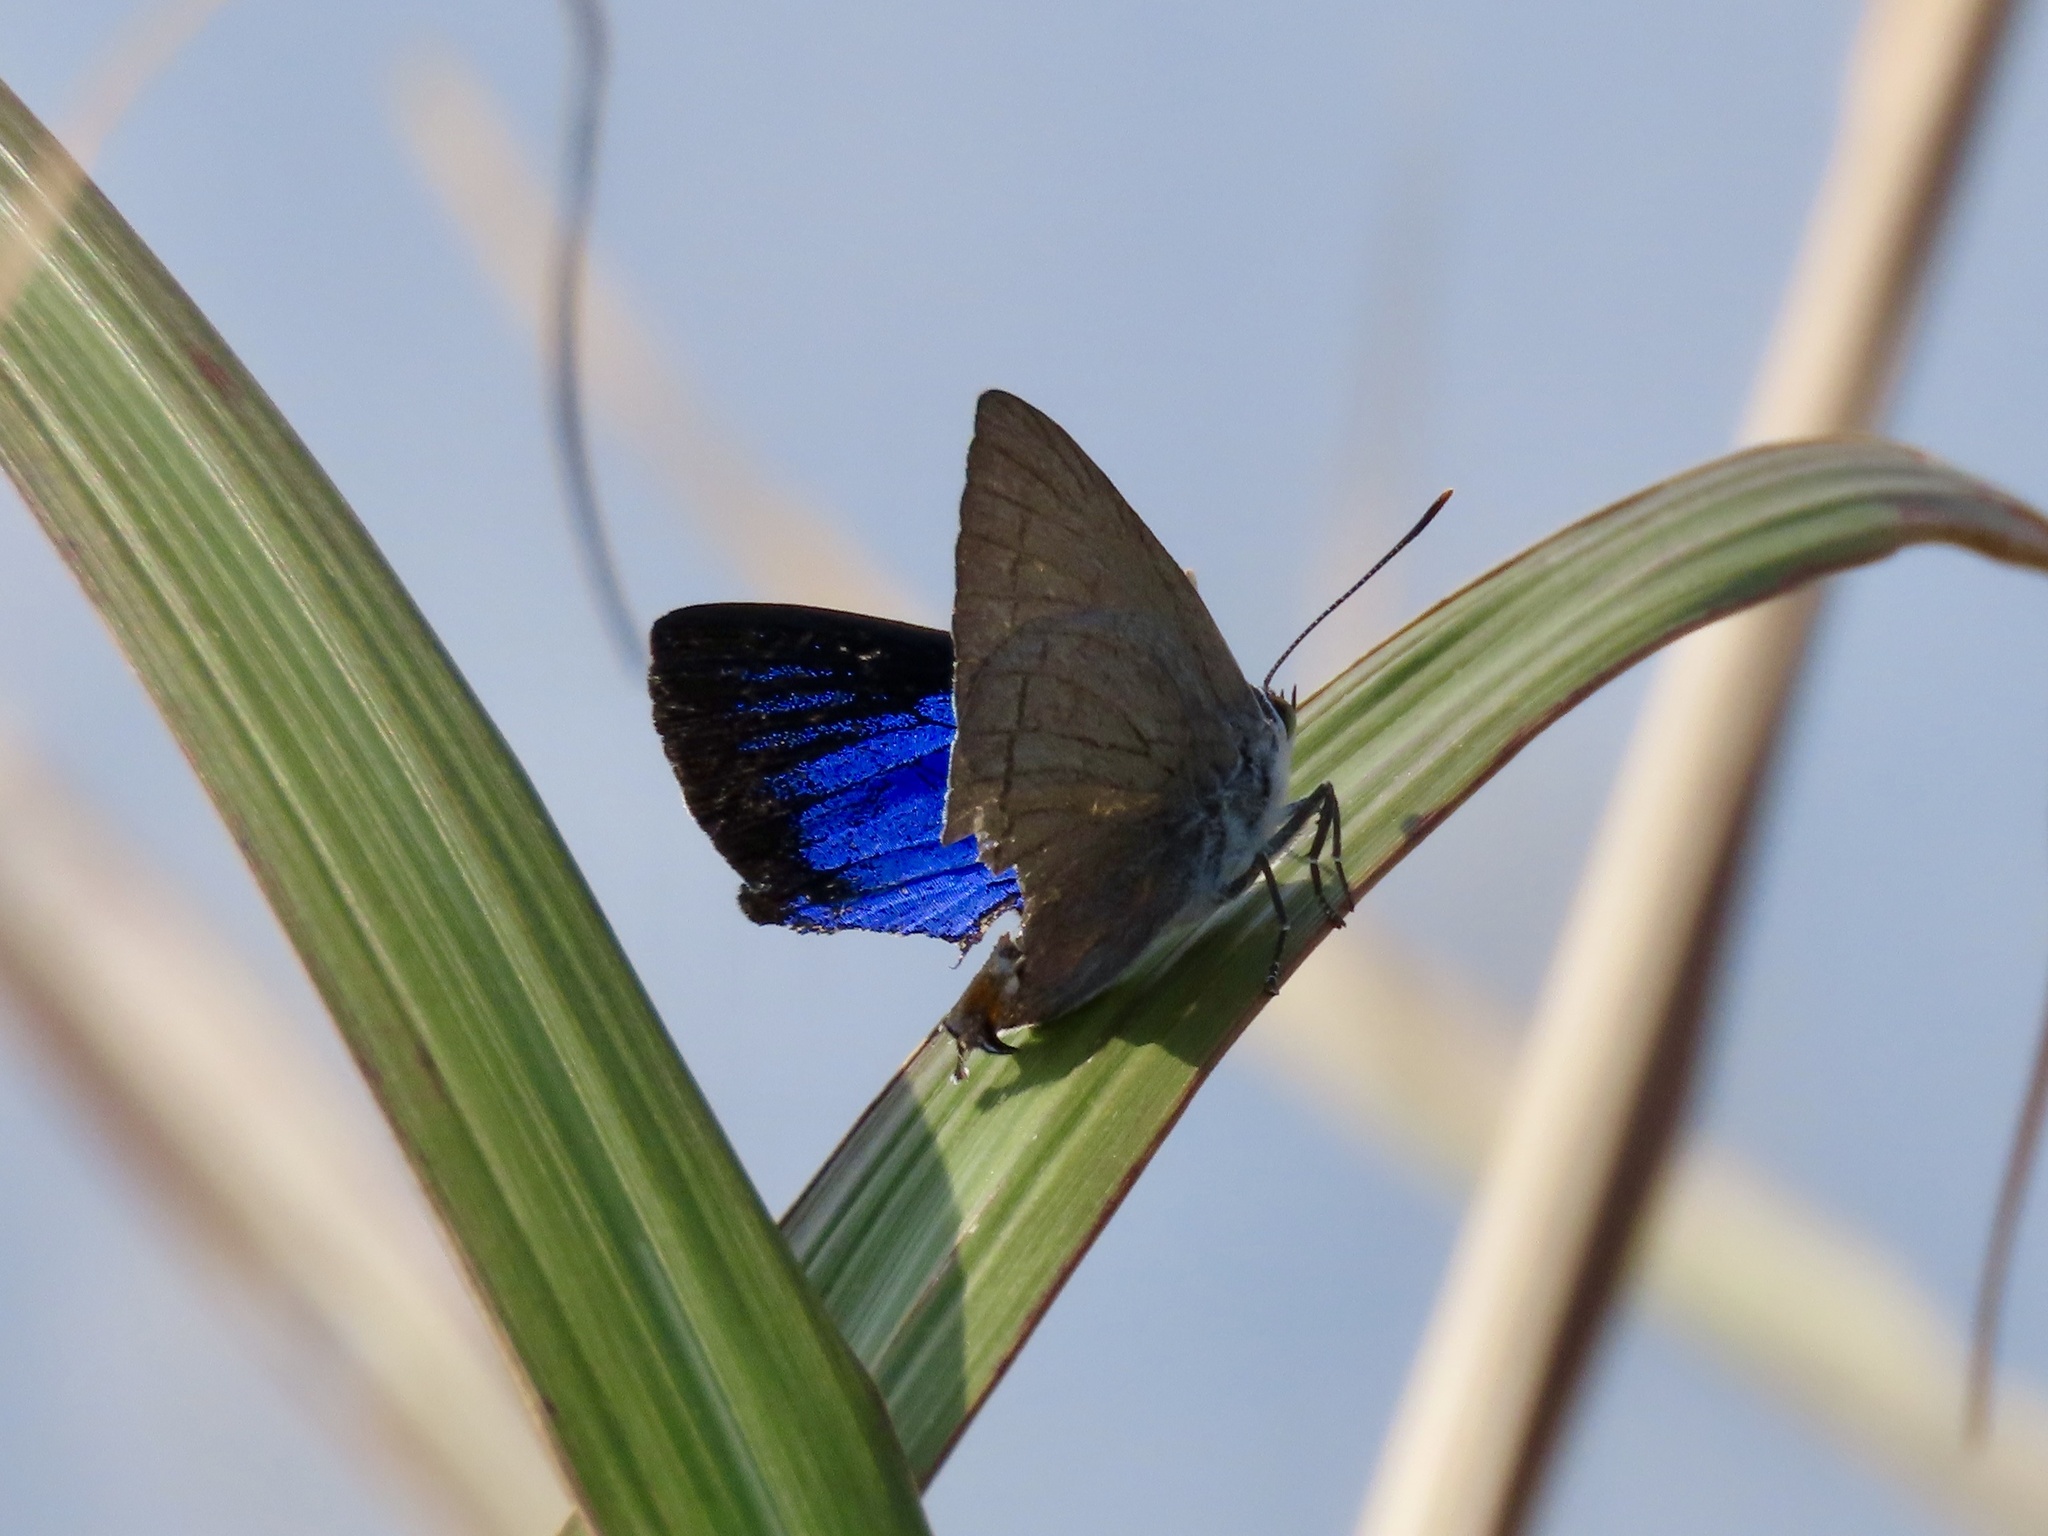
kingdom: Animalia
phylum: Arthropoda
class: Insecta
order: Lepidoptera
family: Lycaenidae
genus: Ancema
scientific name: Ancema blanka
